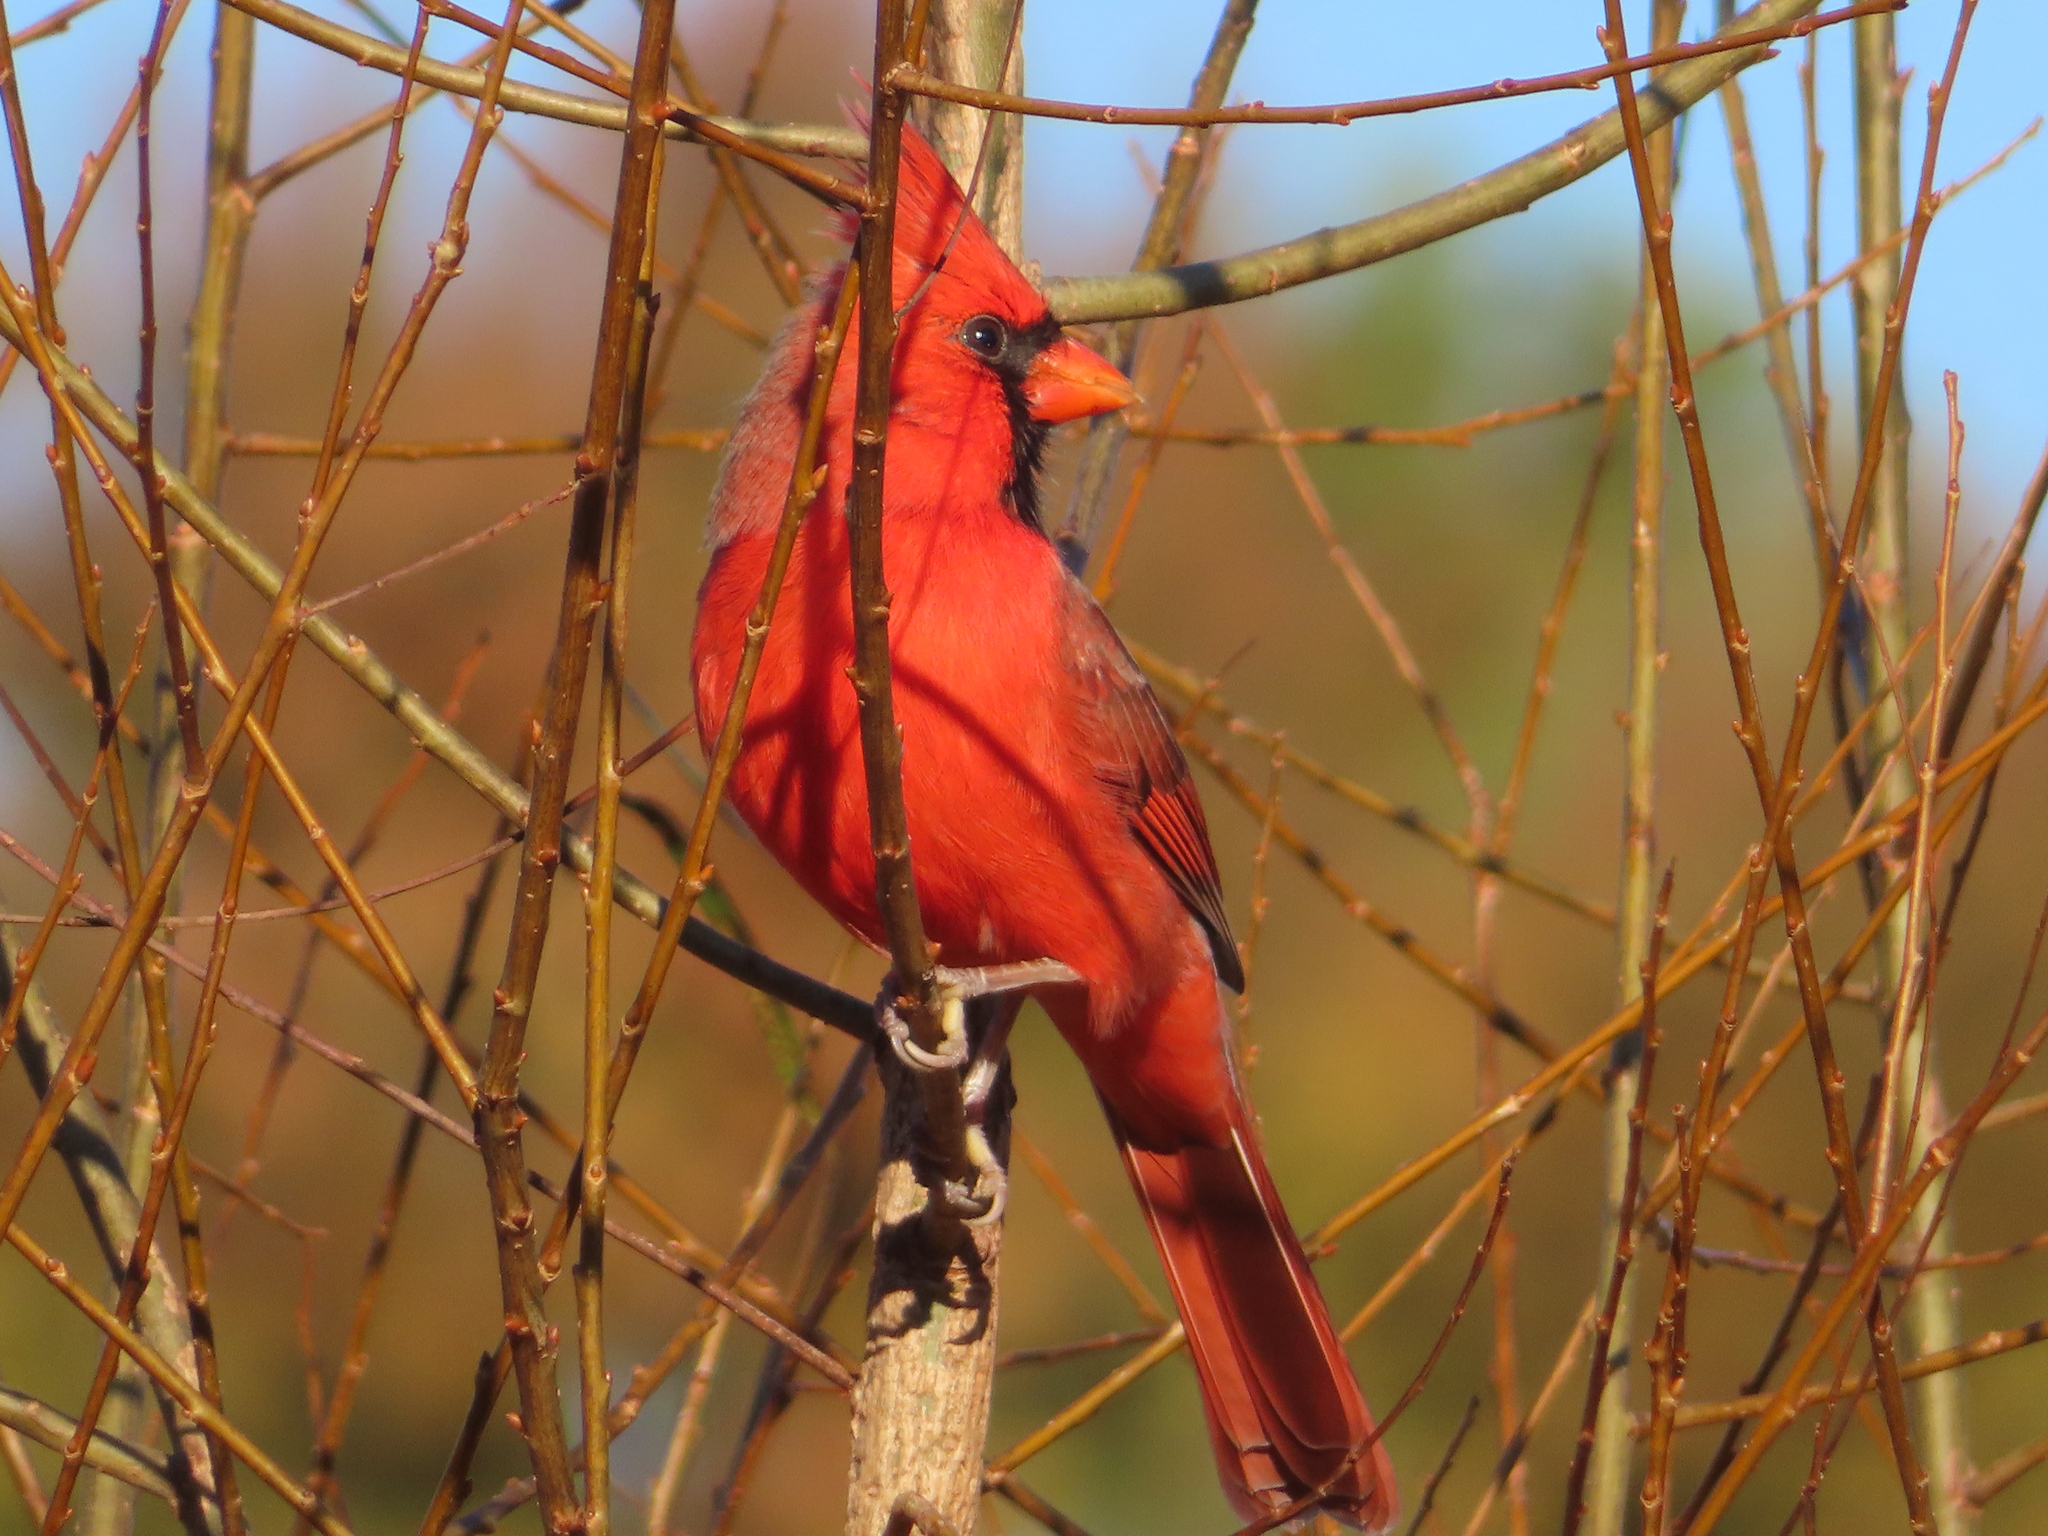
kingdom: Animalia
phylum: Chordata
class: Aves
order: Passeriformes
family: Cardinalidae
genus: Cardinalis
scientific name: Cardinalis cardinalis
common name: Northern cardinal
